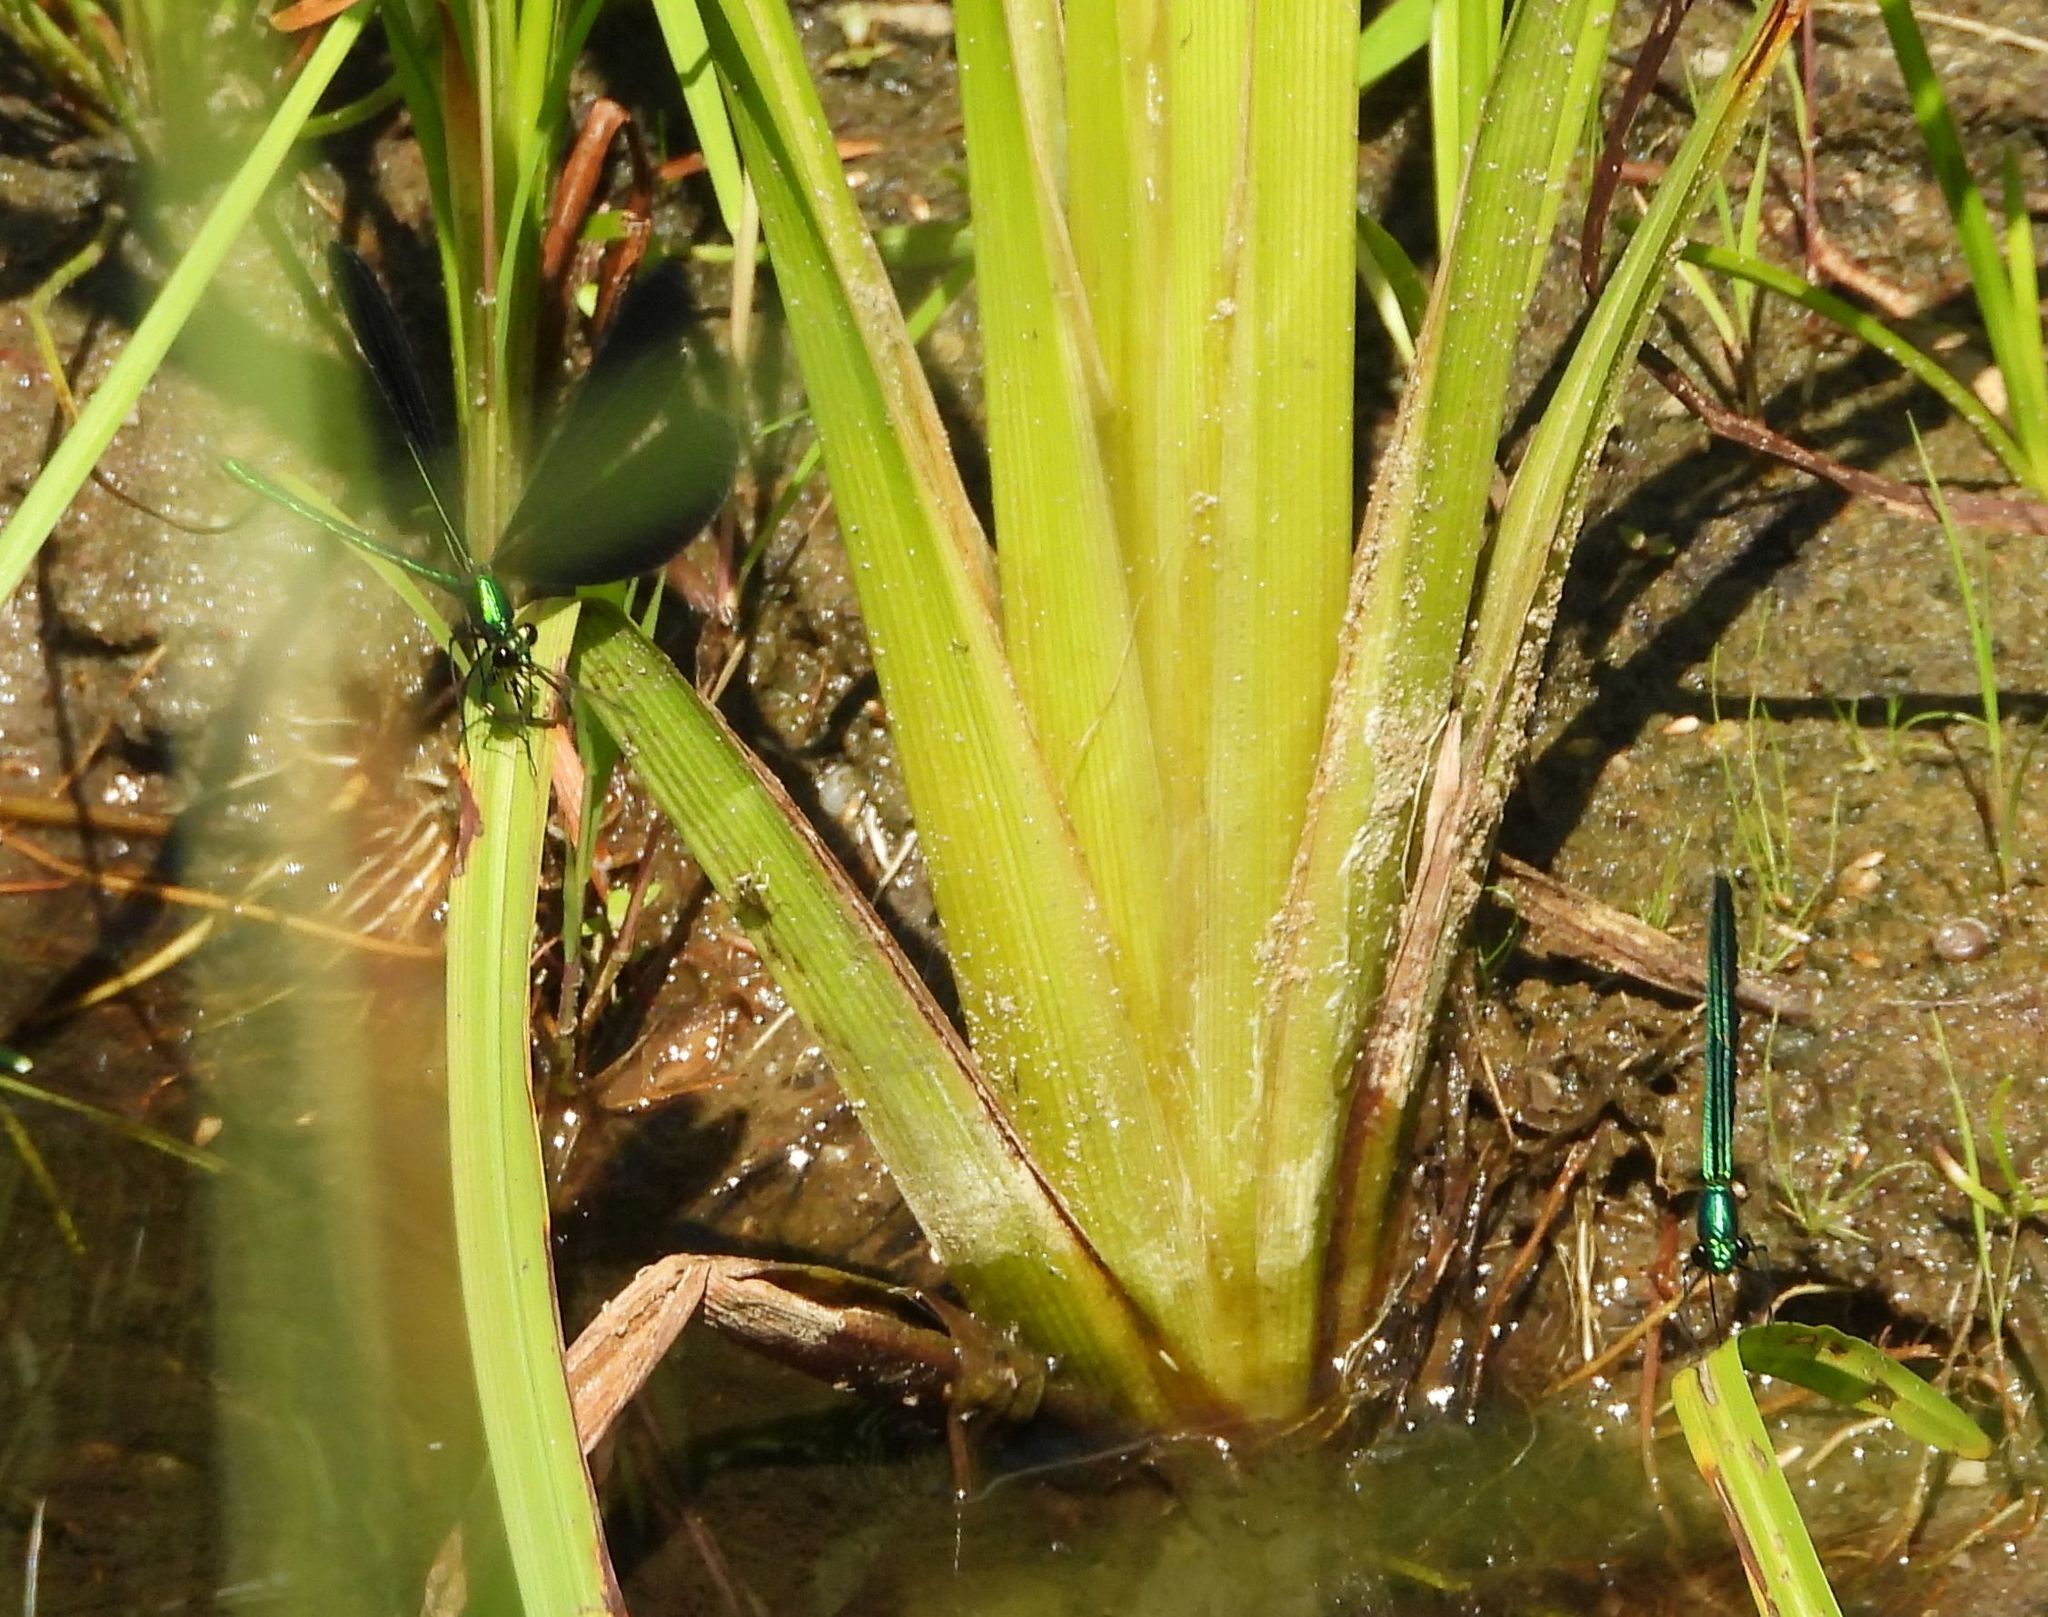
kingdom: Animalia
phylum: Arthropoda
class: Insecta
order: Odonata
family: Calopterygidae
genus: Calopteryx
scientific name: Calopteryx maculata
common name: Ebony jewelwing
